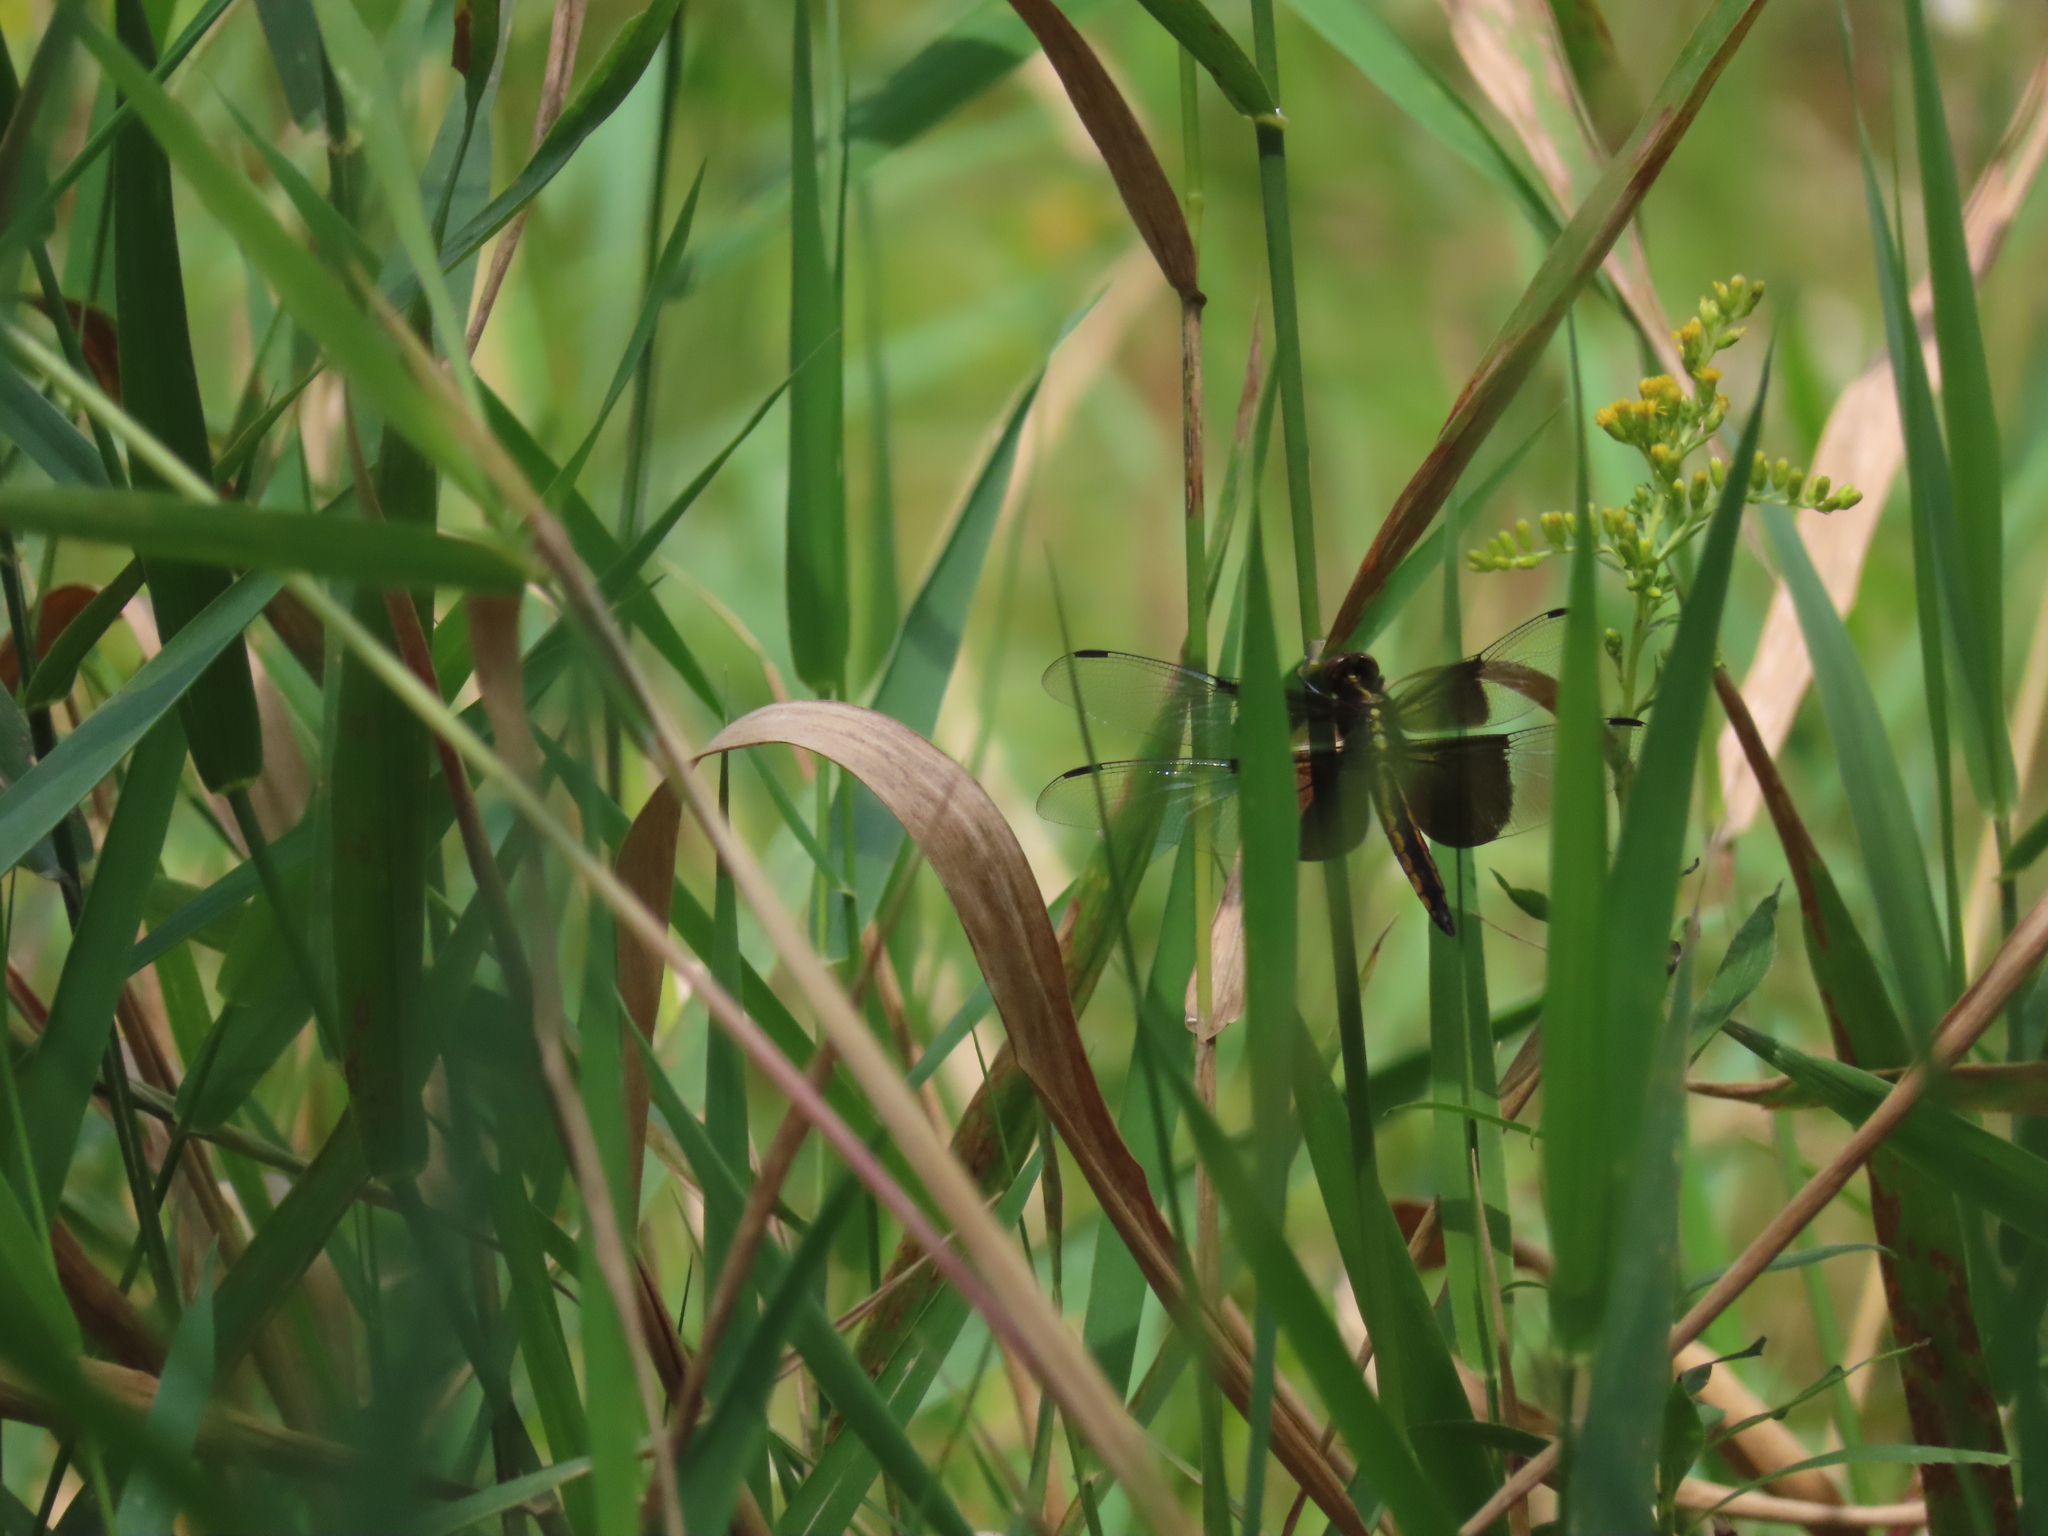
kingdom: Animalia
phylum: Arthropoda
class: Insecta
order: Odonata
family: Libellulidae
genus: Libellula
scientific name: Libellula luctuosa
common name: Widow skimmer
